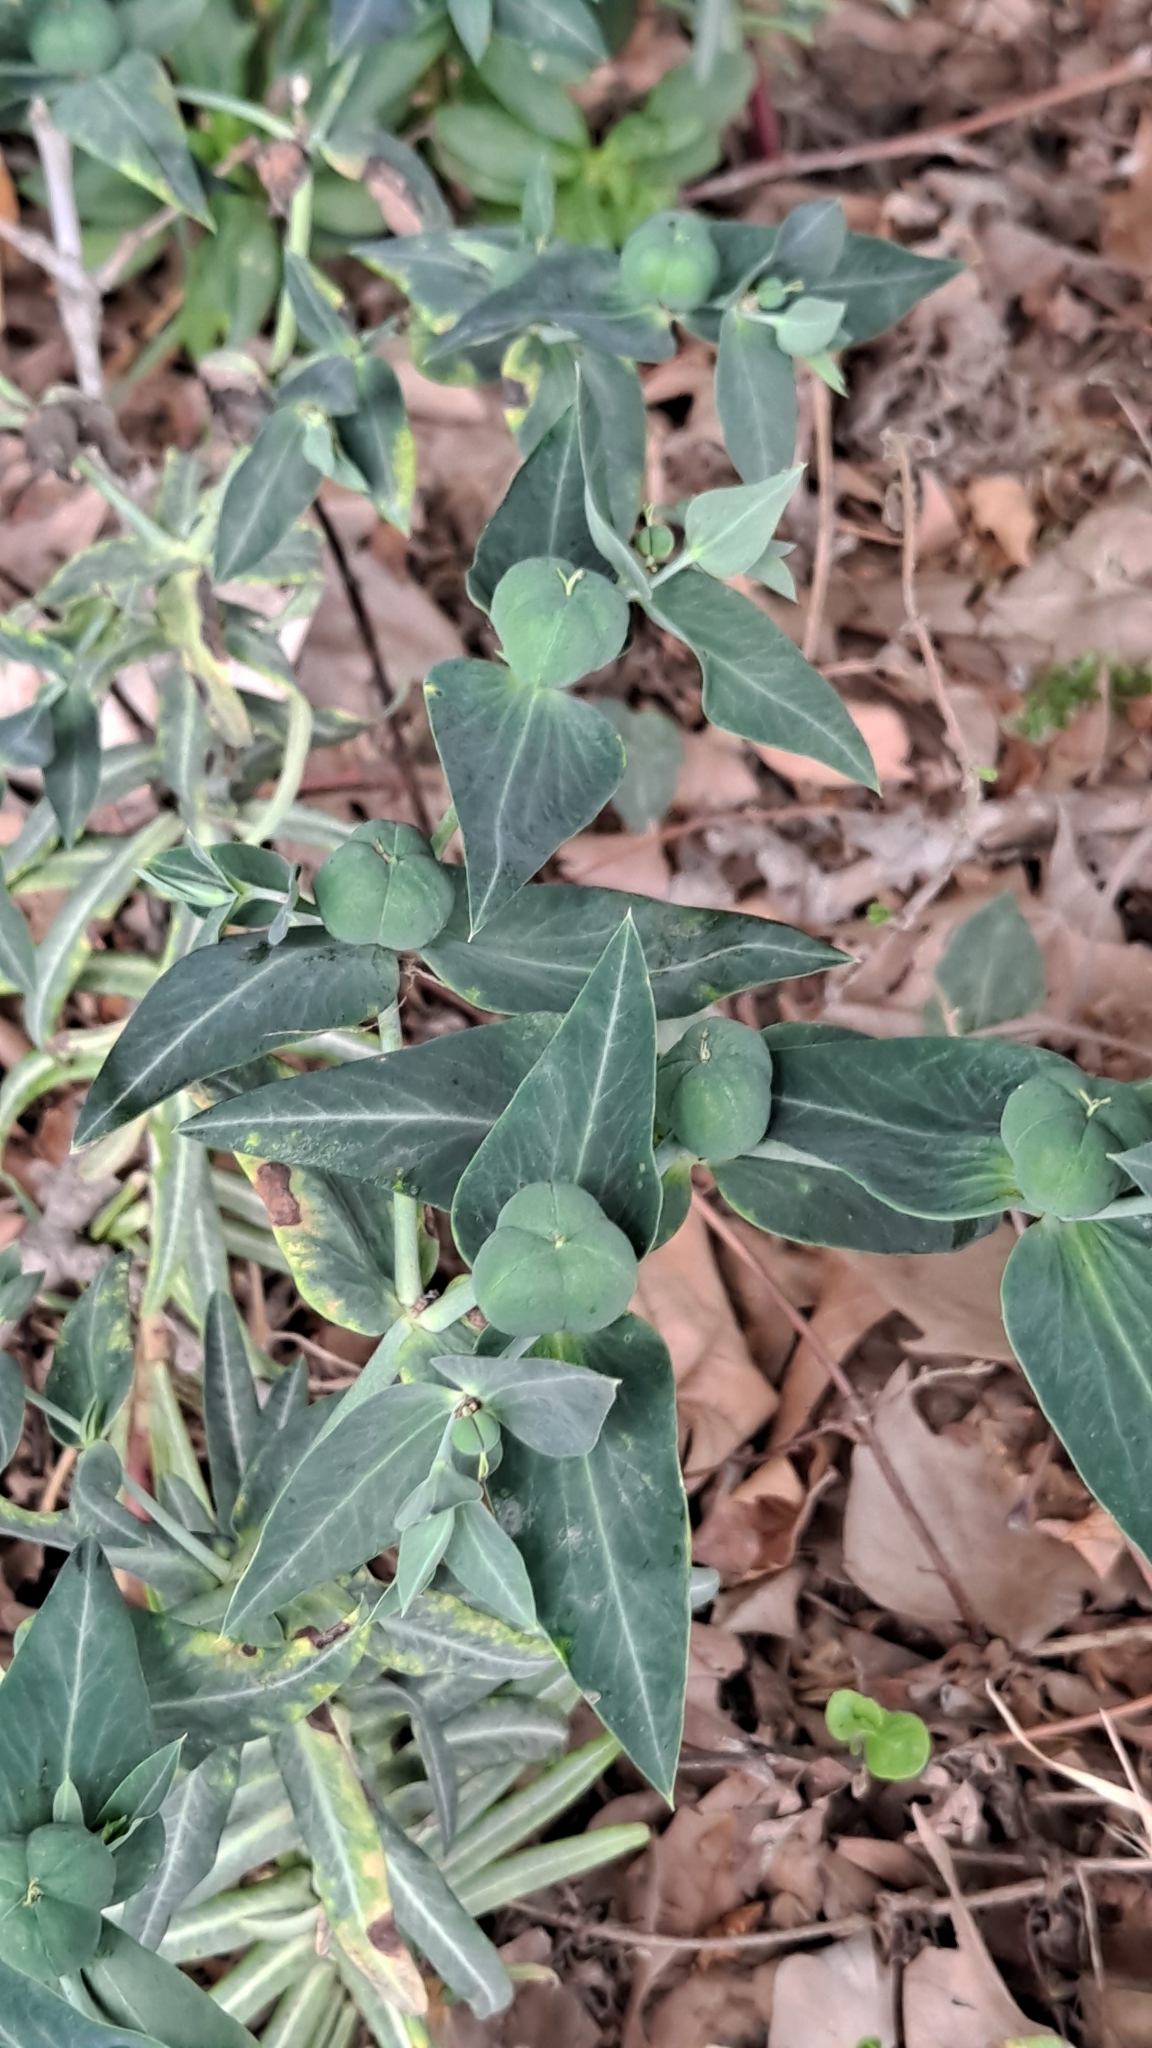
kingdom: Plantae
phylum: Tracheophyta
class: Magnoliopsida
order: Malpighiales
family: Euphorbiaceae
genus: Euphorbia
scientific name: Euphorbia lathyris
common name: Caper spurge
